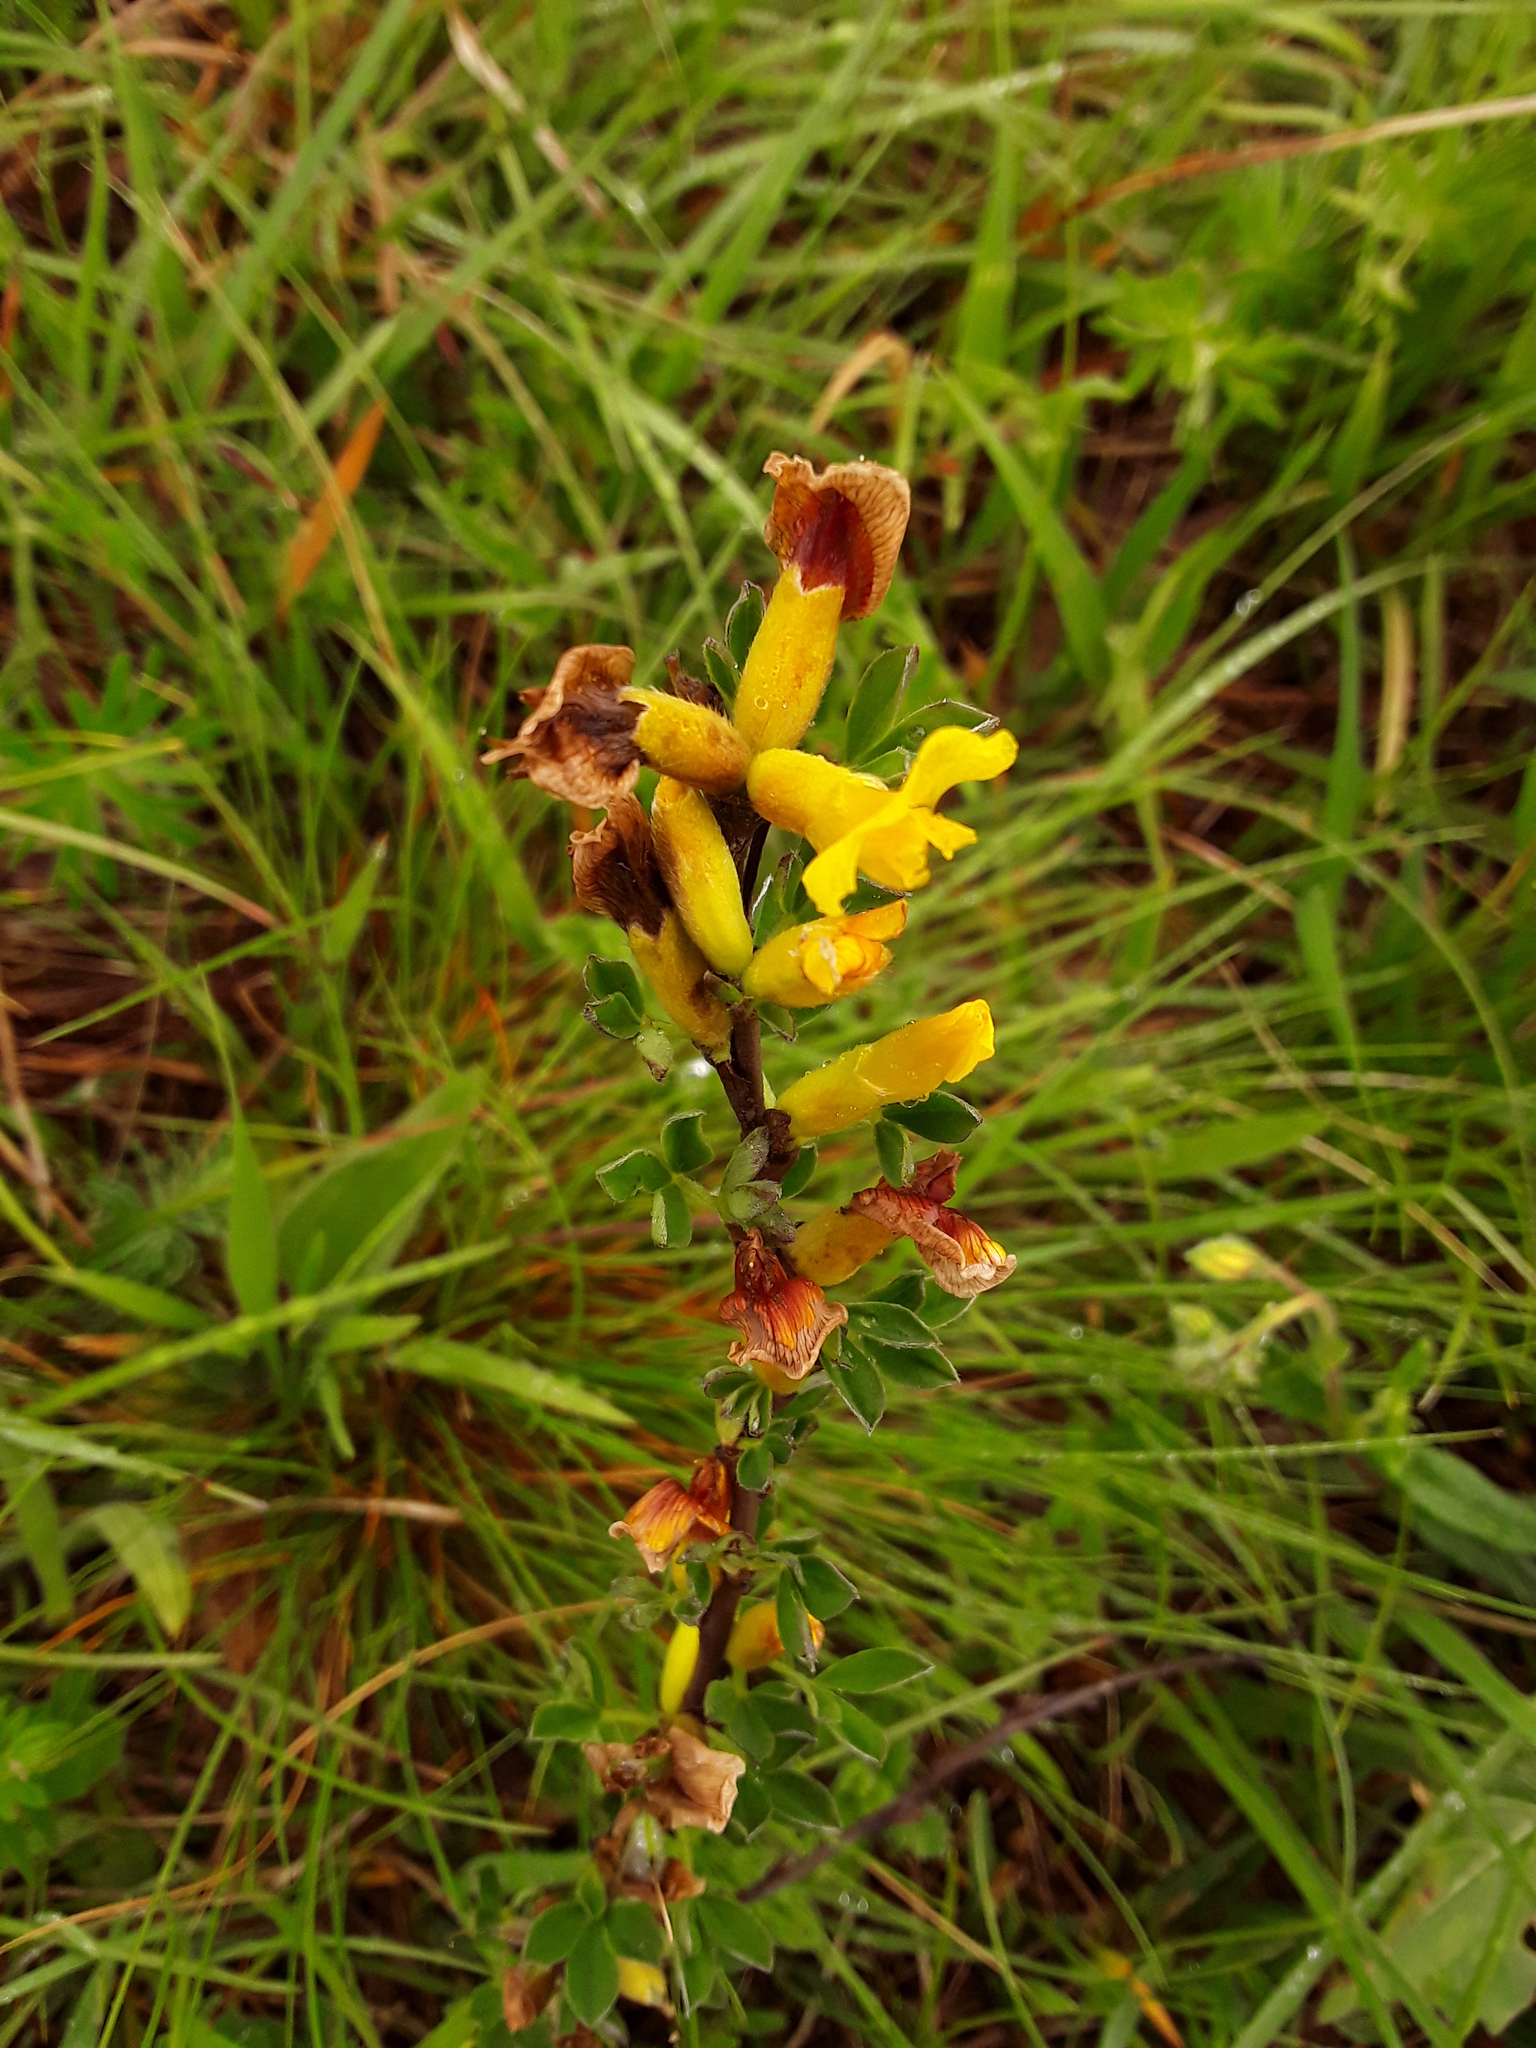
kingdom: Plantae
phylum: Tracheophyta
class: Magnoliopsida
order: Fabales
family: Fabaceae
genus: Chamaecytisus
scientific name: Chamaecytisus ratisbonensis
